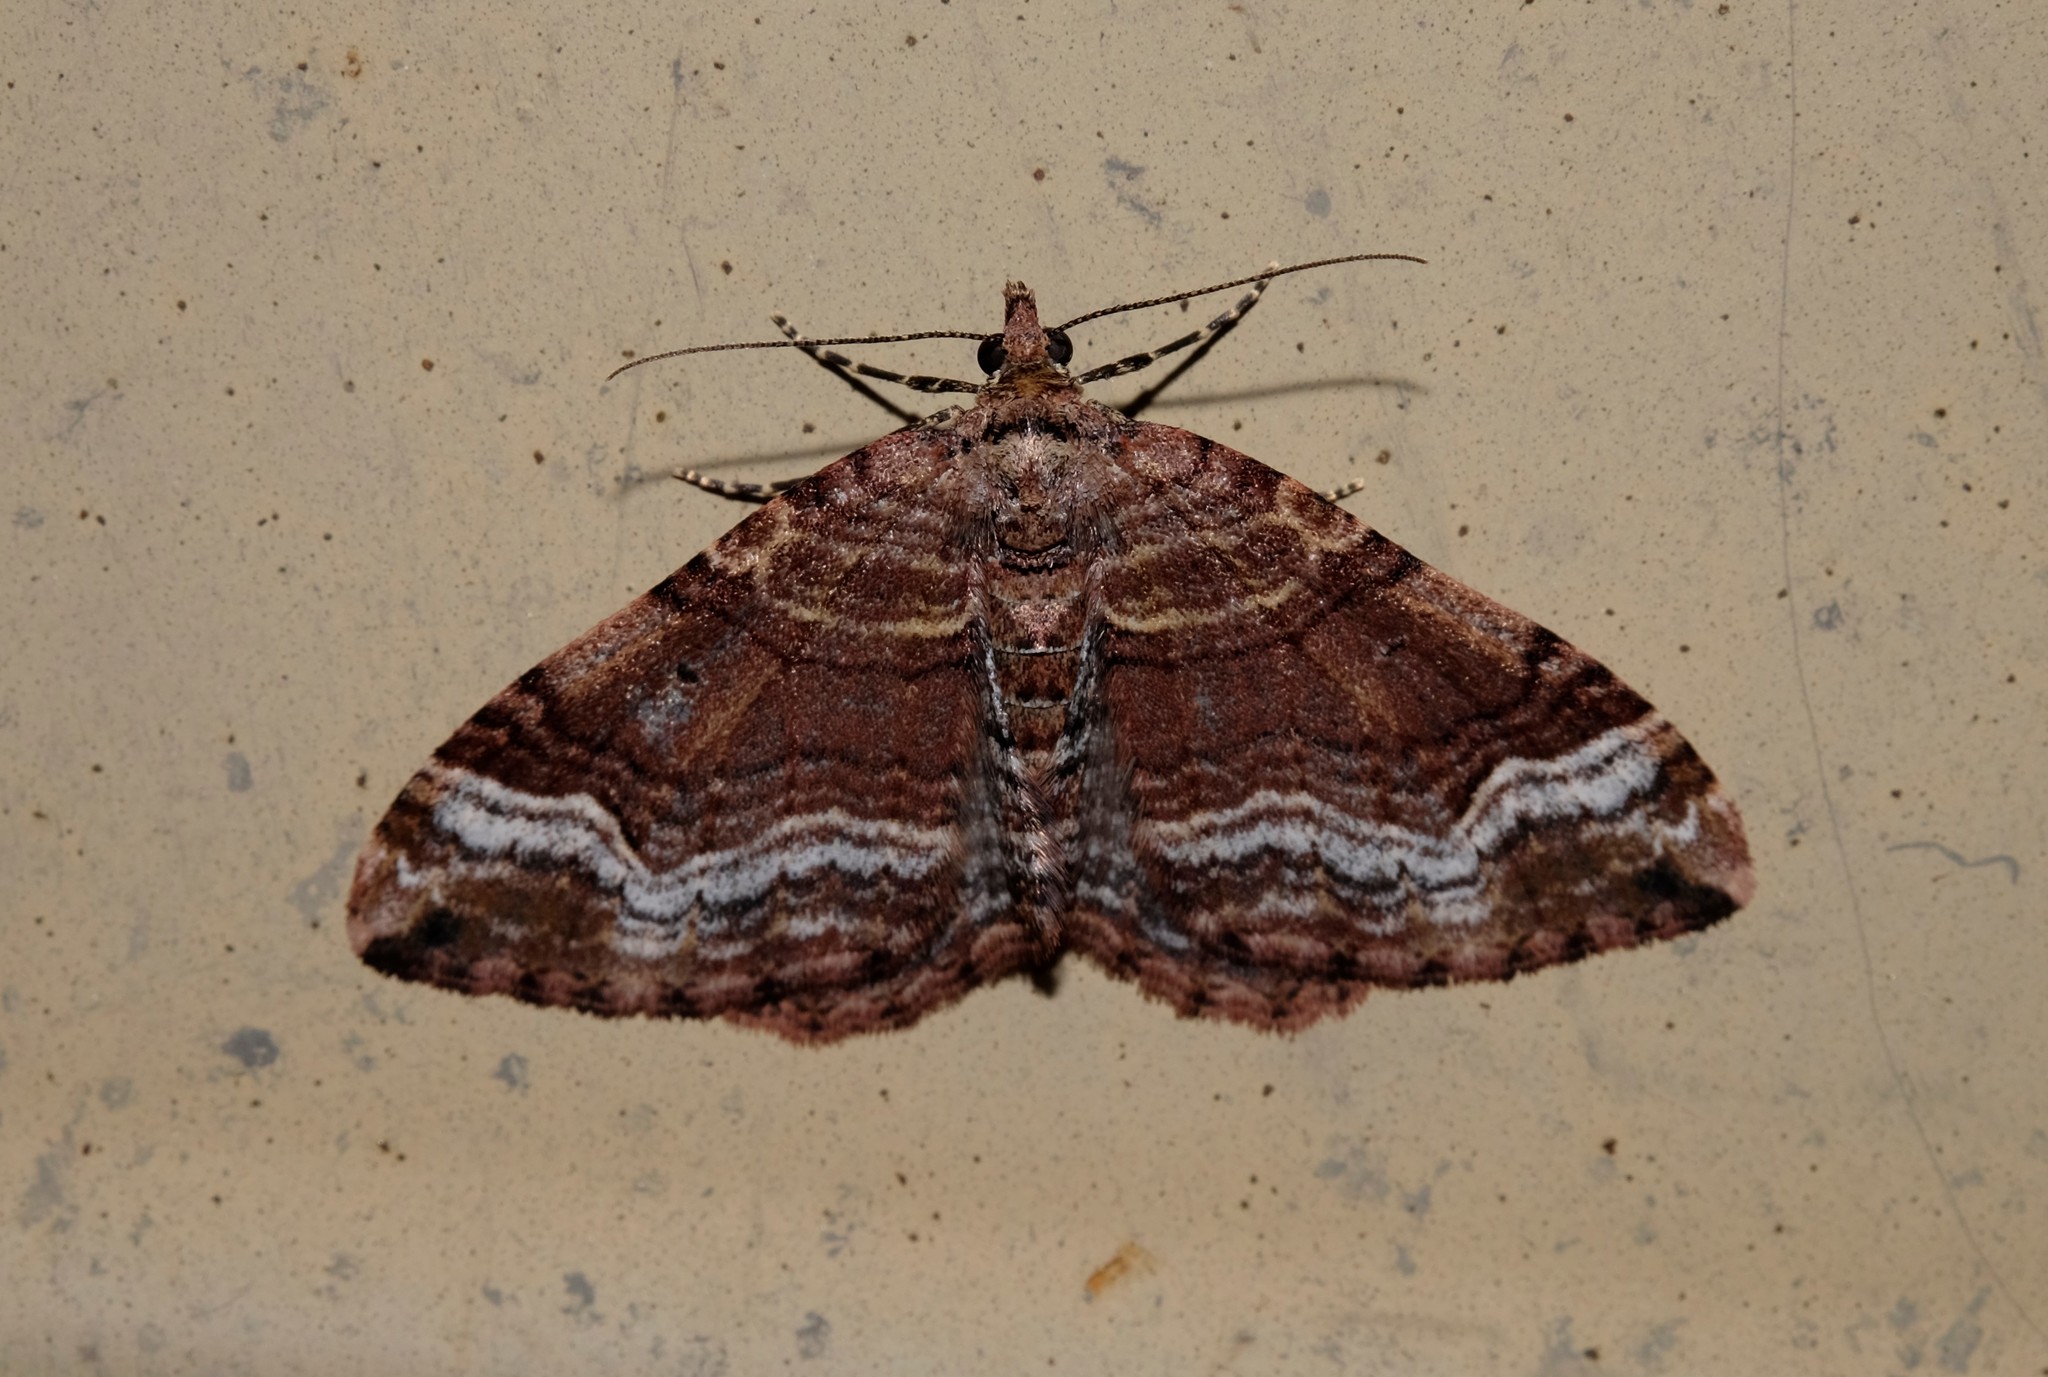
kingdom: Animalia
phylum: Arthropoda
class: Insecta
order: Lepidoptera
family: Geometridae
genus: Epyaxa
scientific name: Epyaxa subidaria
